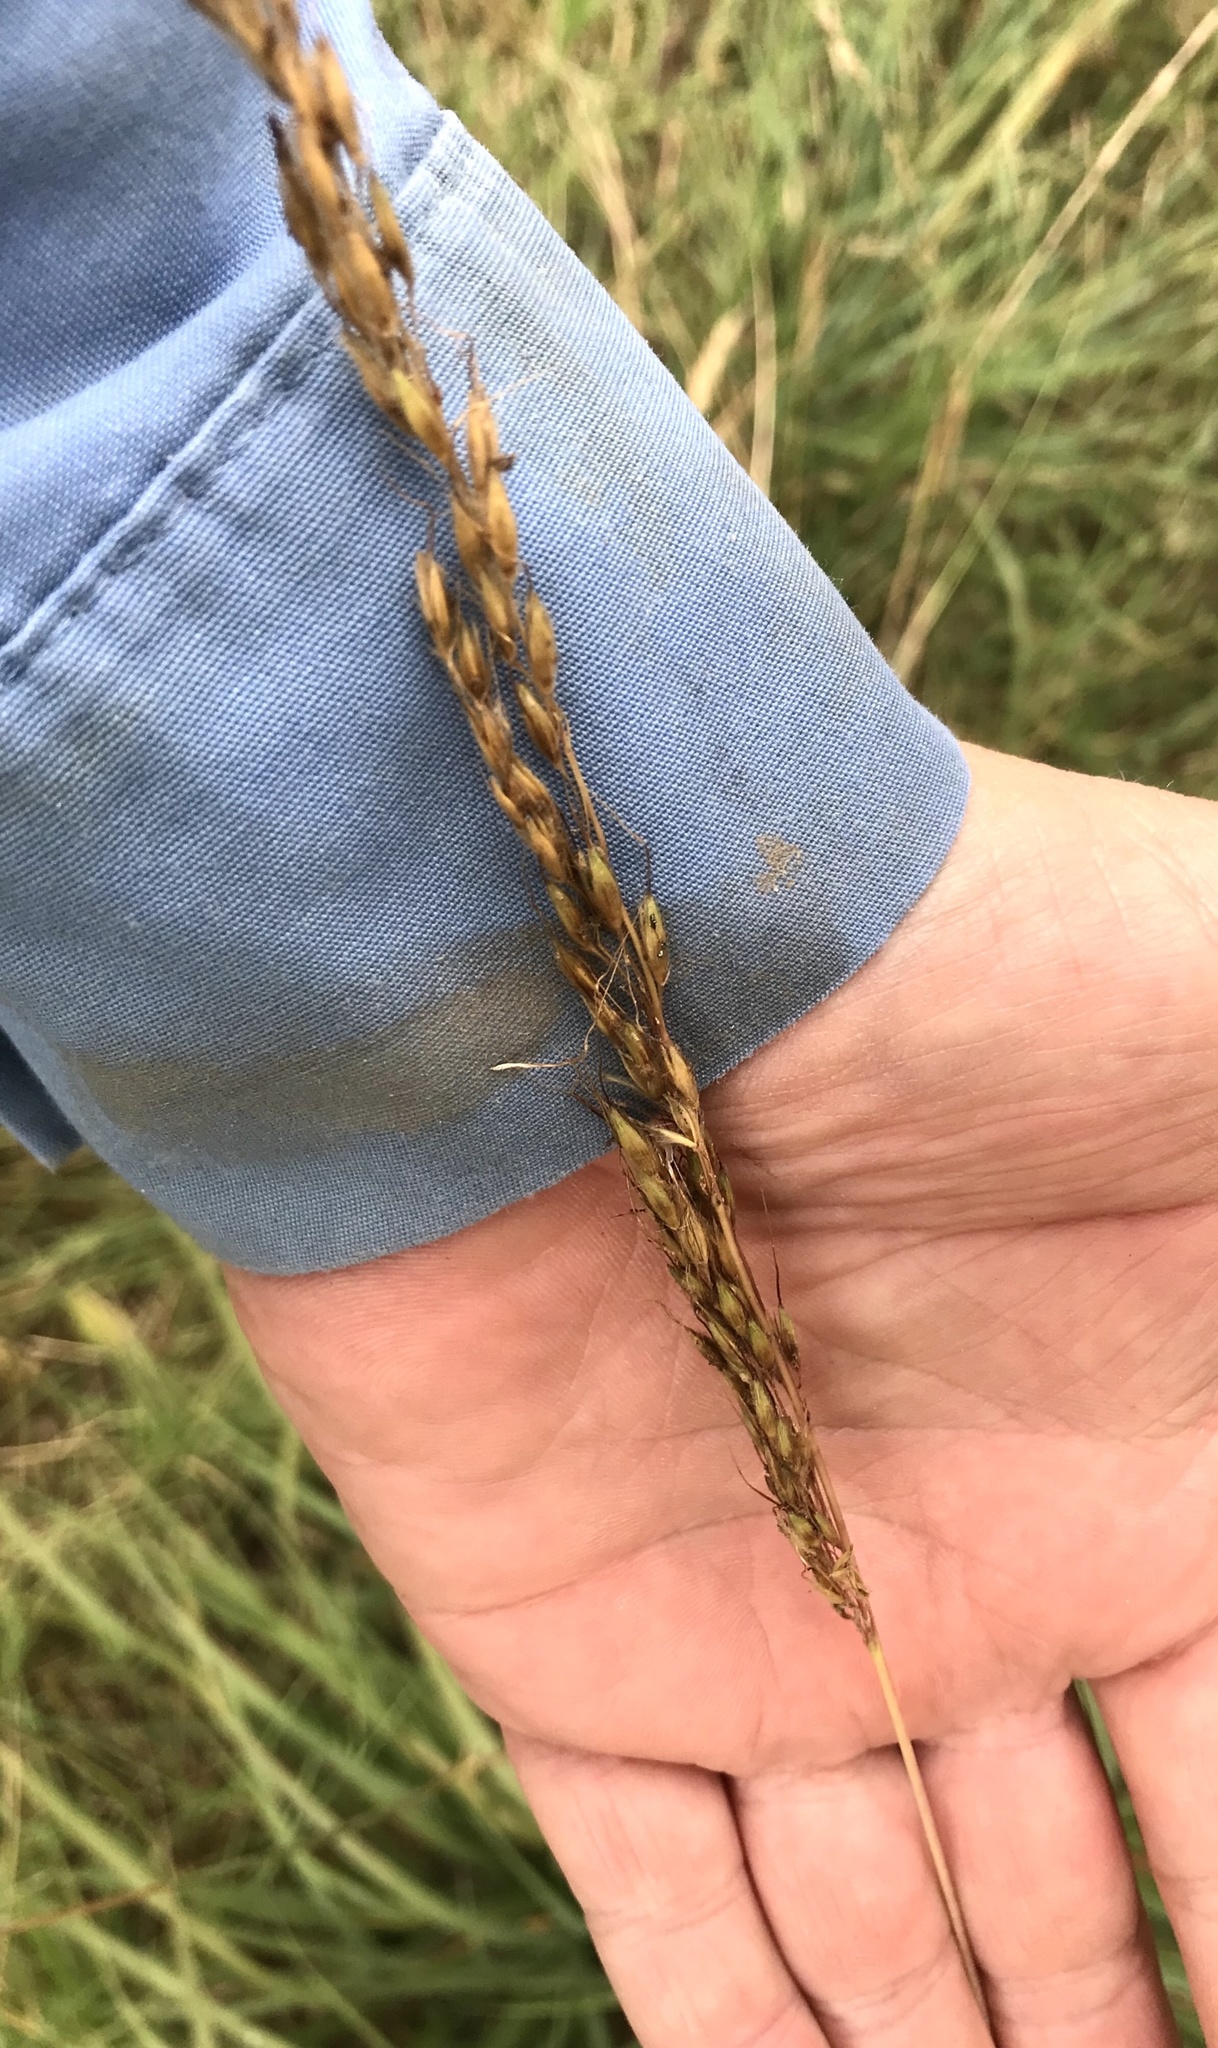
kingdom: Plantae
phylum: Tracheophyta
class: Liliopsida
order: Poales
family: Poaceae
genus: Sorghastrum
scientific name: Sorghastrum nutans
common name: Indian grass
